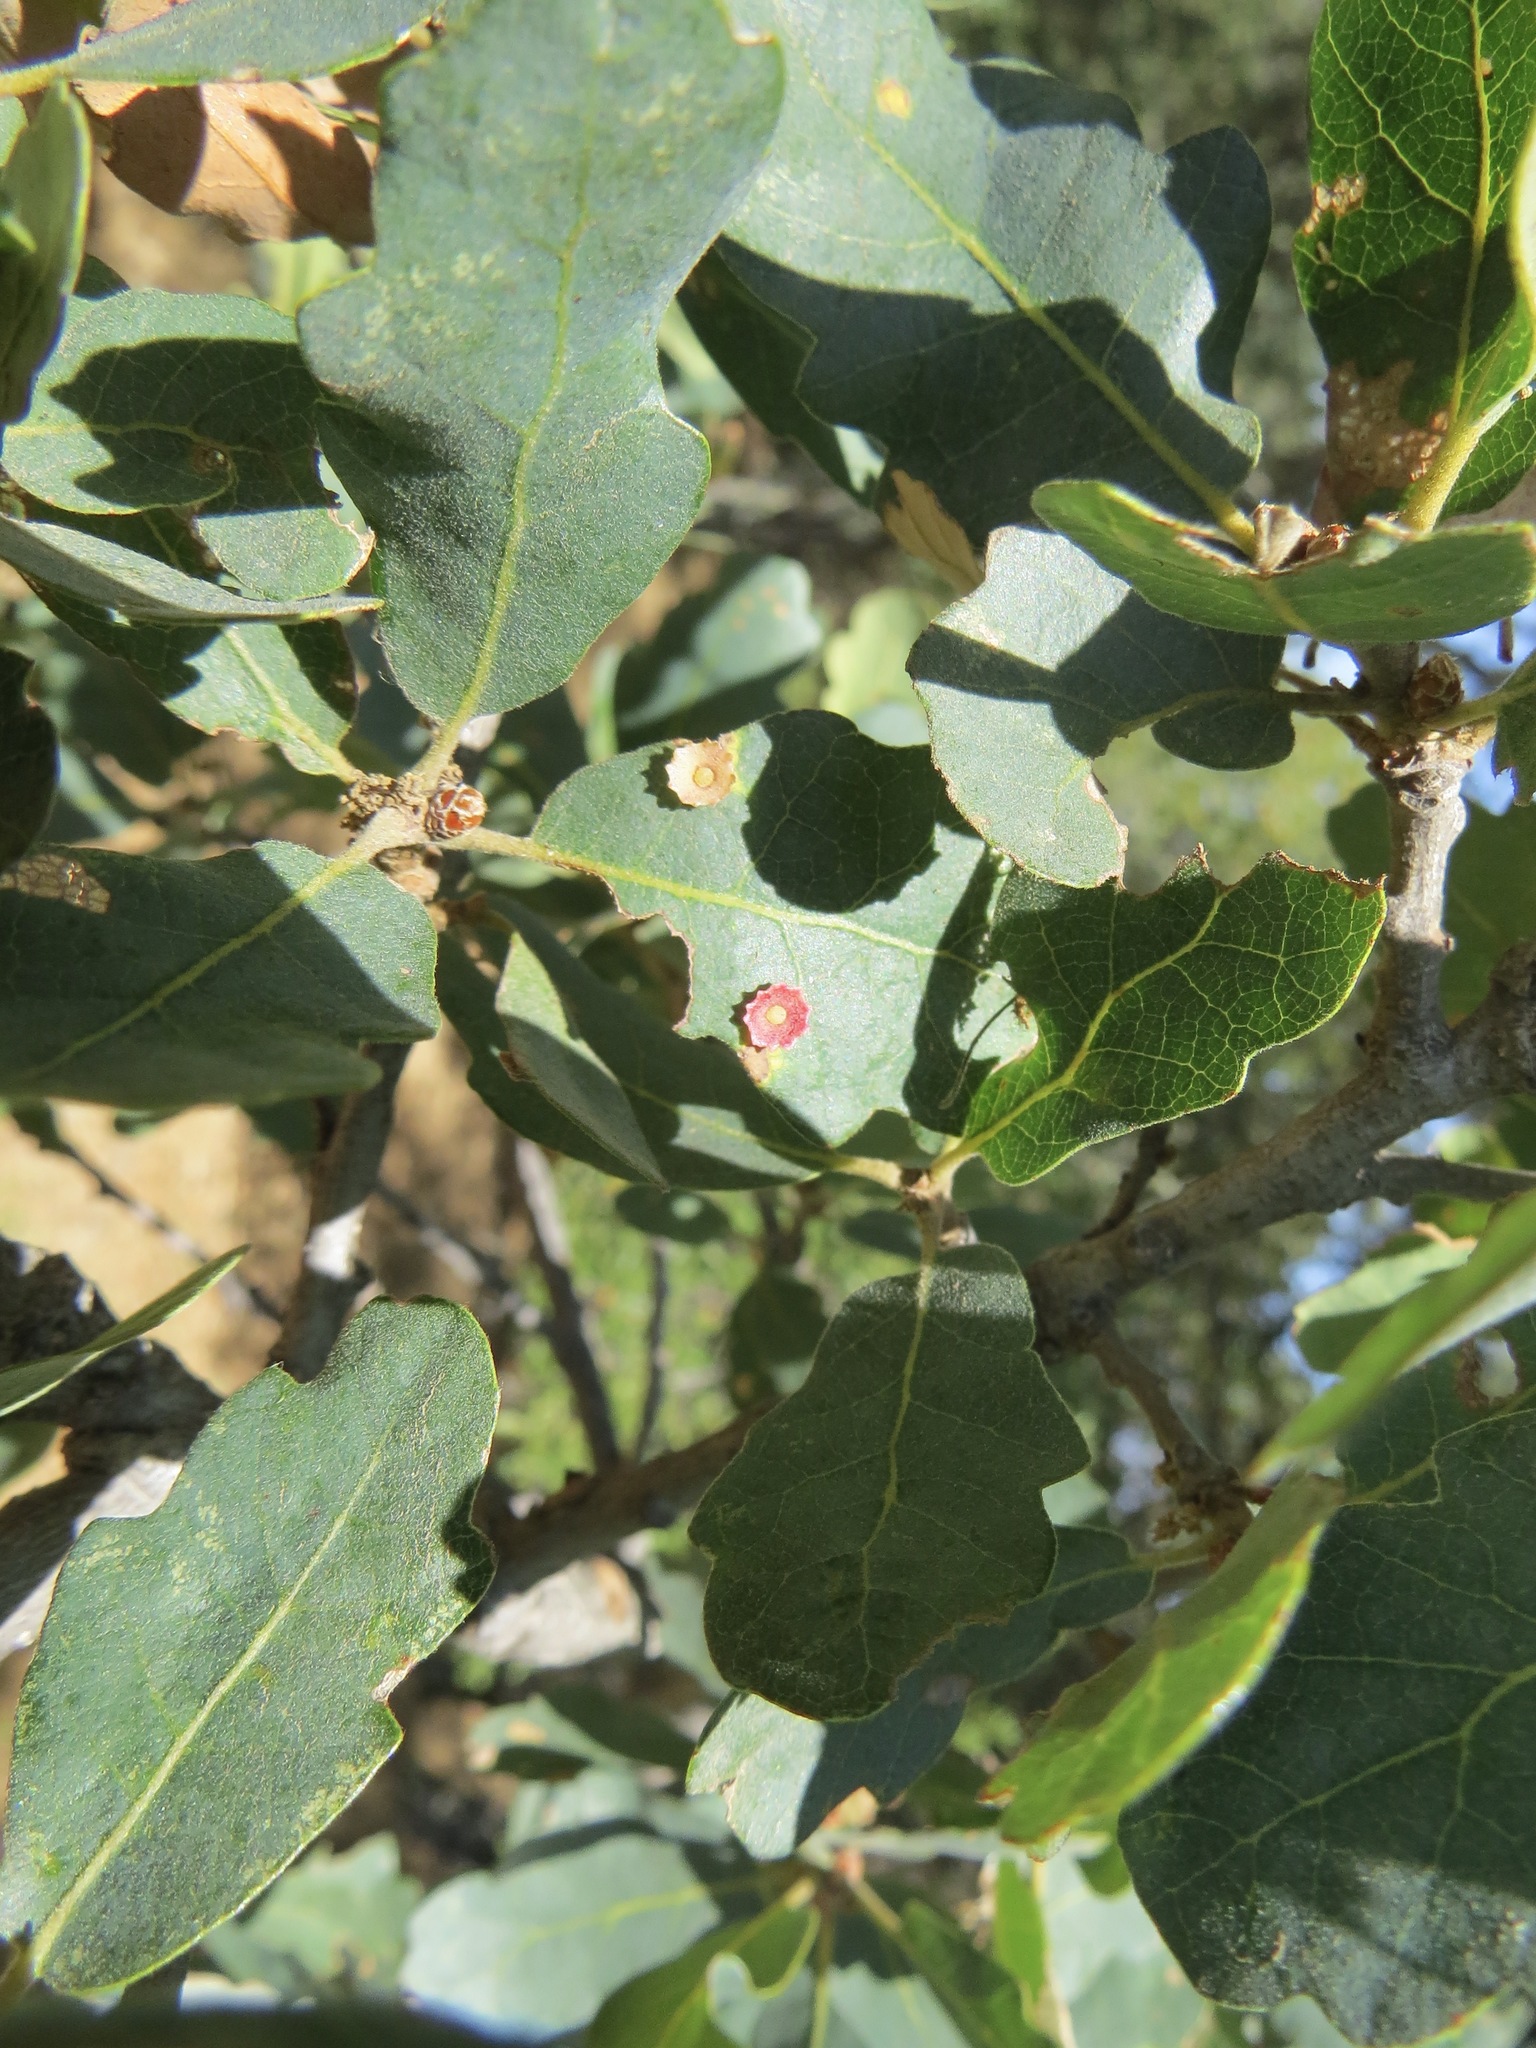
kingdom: Animalia
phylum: Arthropoda
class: Insecta
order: Hymenoptera
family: Cynipidae
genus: Andricus
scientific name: Andricus
